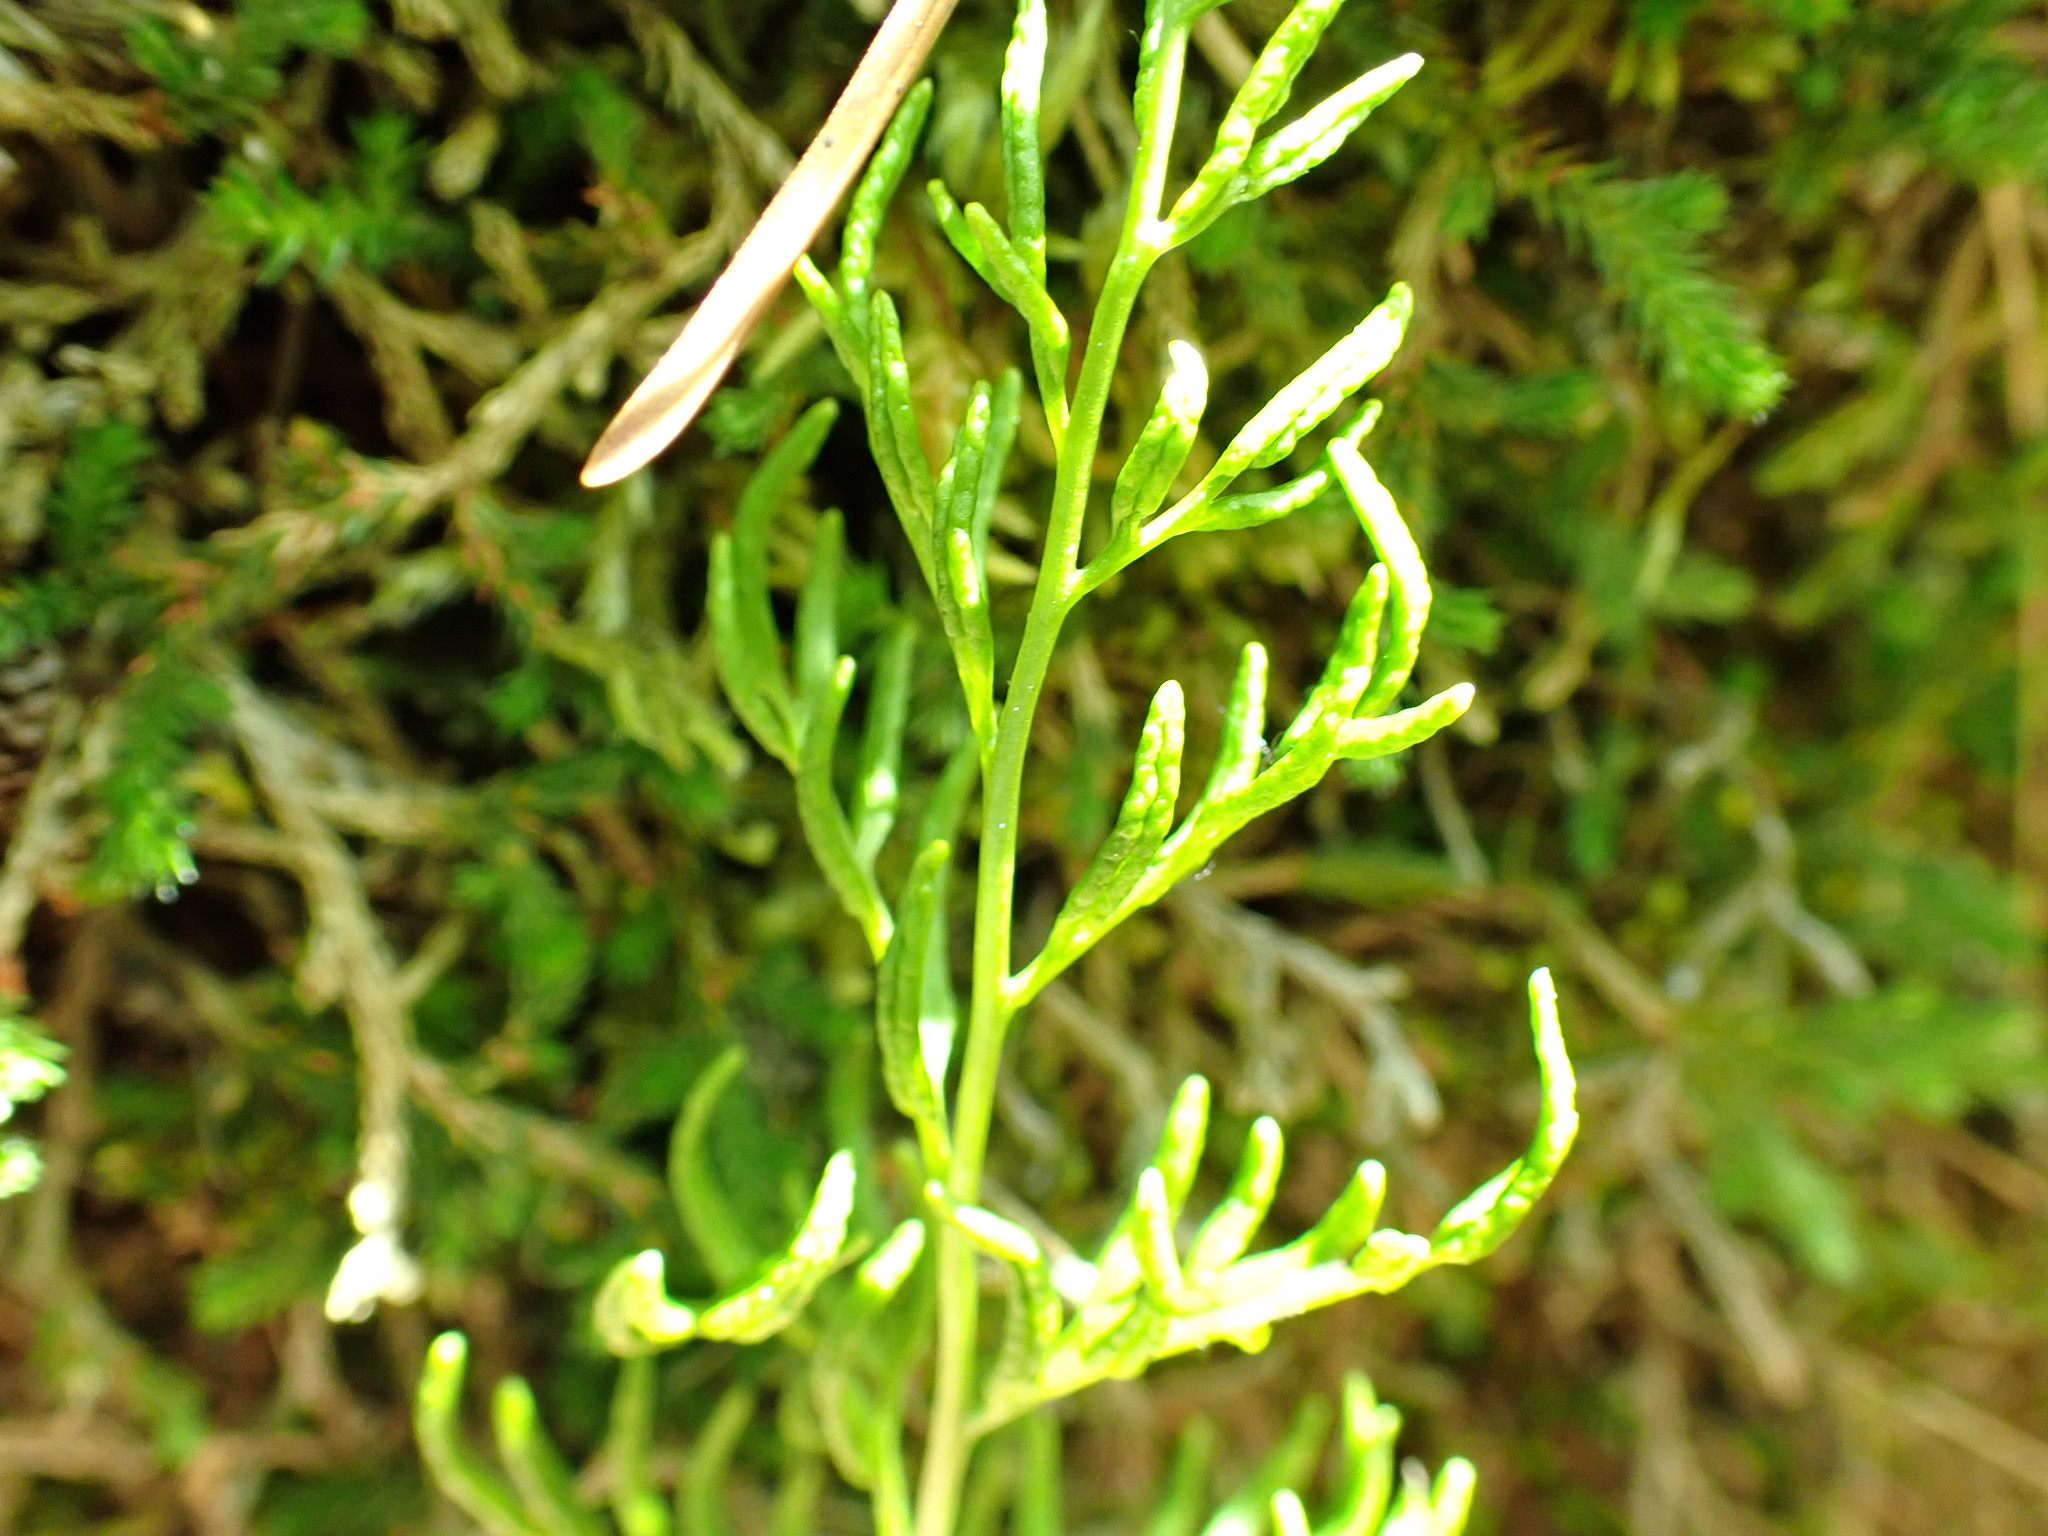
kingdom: Plantae
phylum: Tracheophyta
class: Polypodiopsida
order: Polypodiales
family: Pteridaceae
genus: Cryptogramma
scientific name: Cryptogramma acrostichoides
